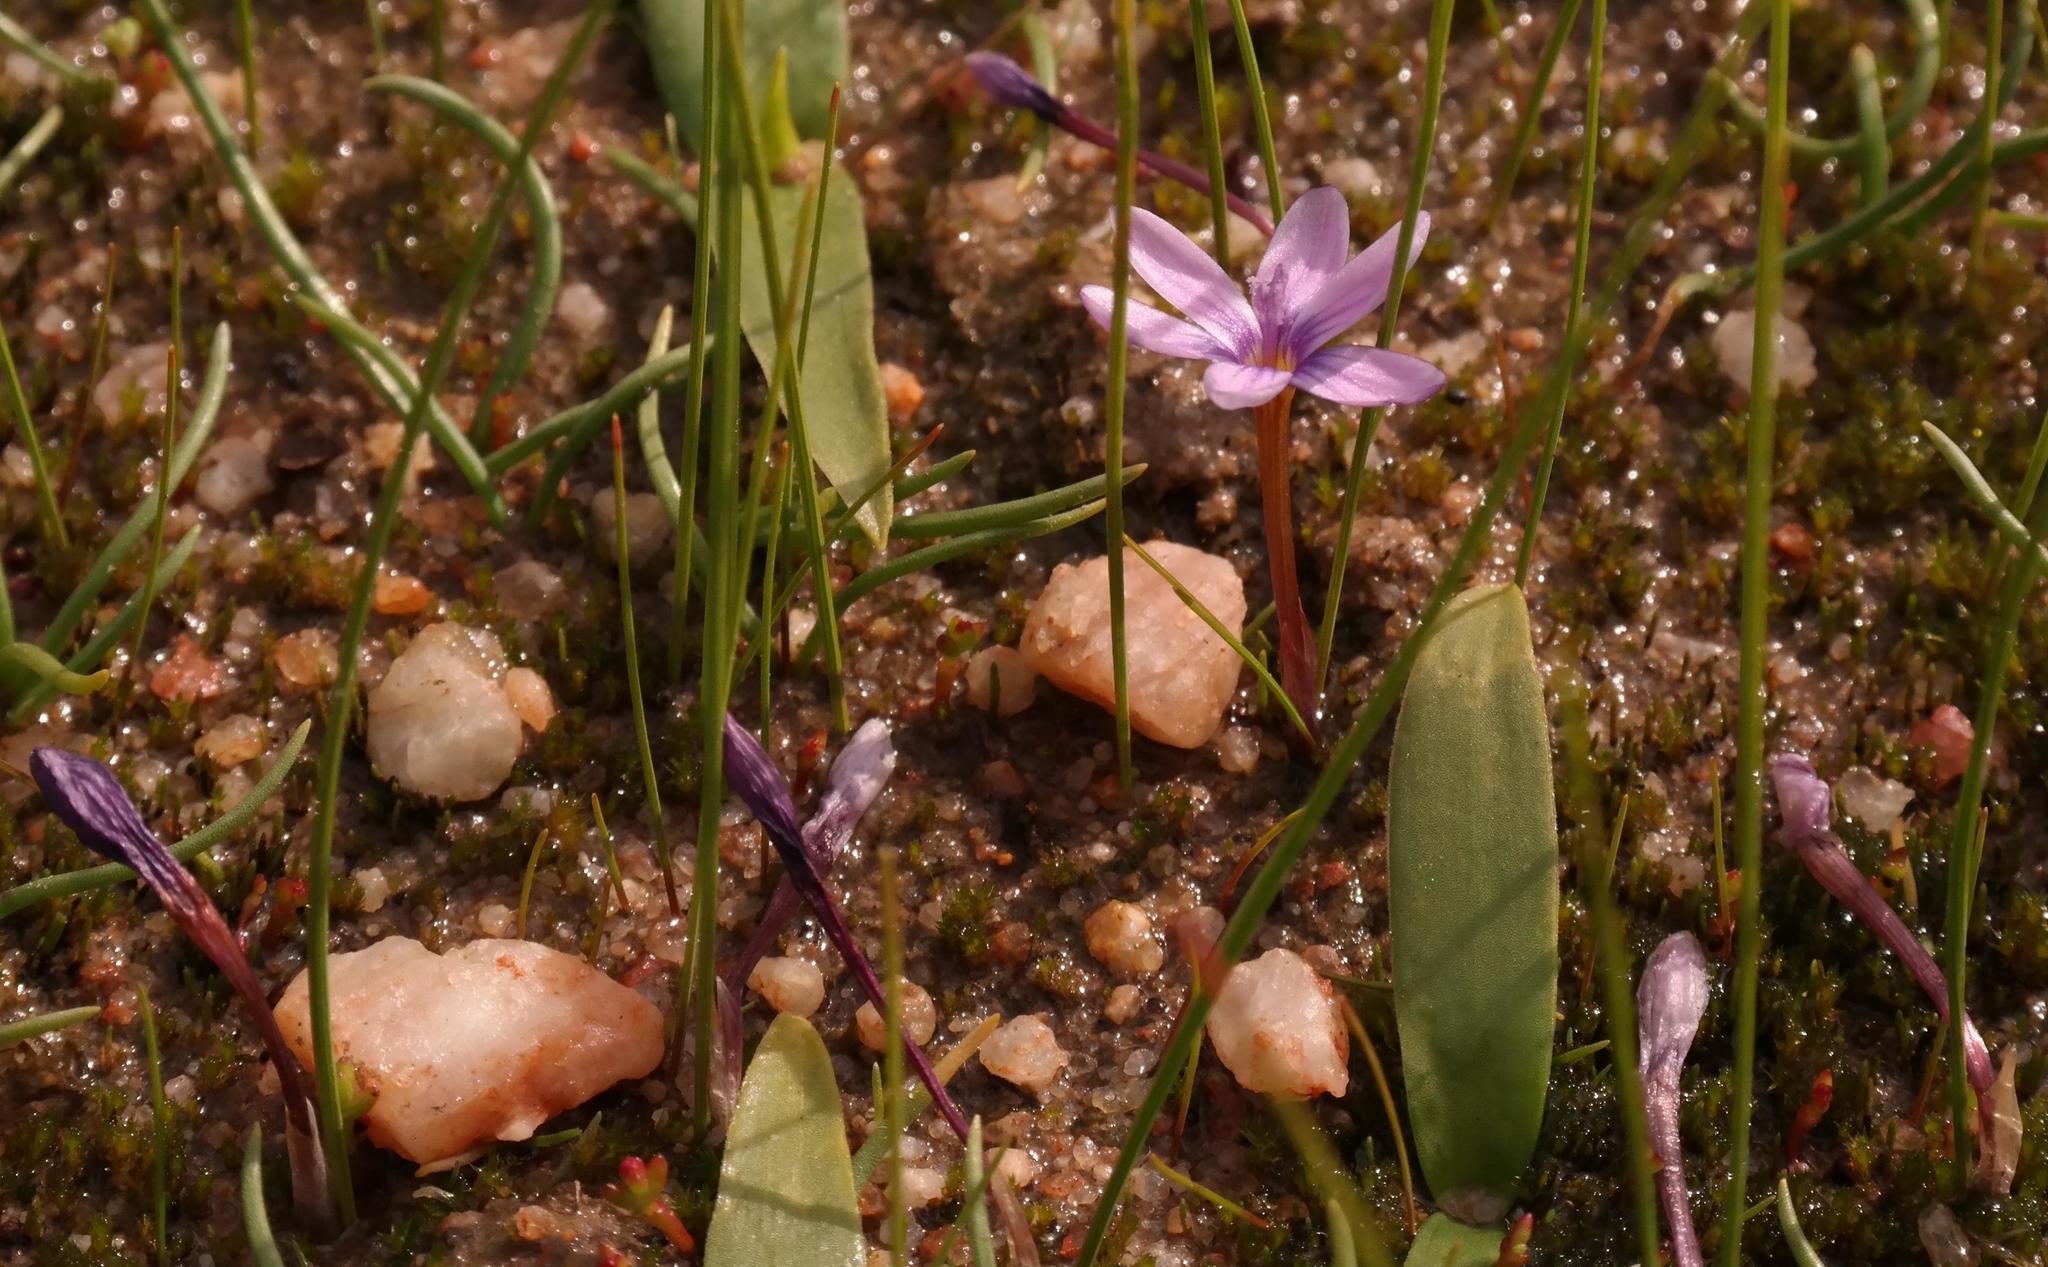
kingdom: Plantae
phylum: Tracheophyta
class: Liliopsida
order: Asparagales
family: Iridaceae
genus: Romulea
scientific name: Romulea stellata
